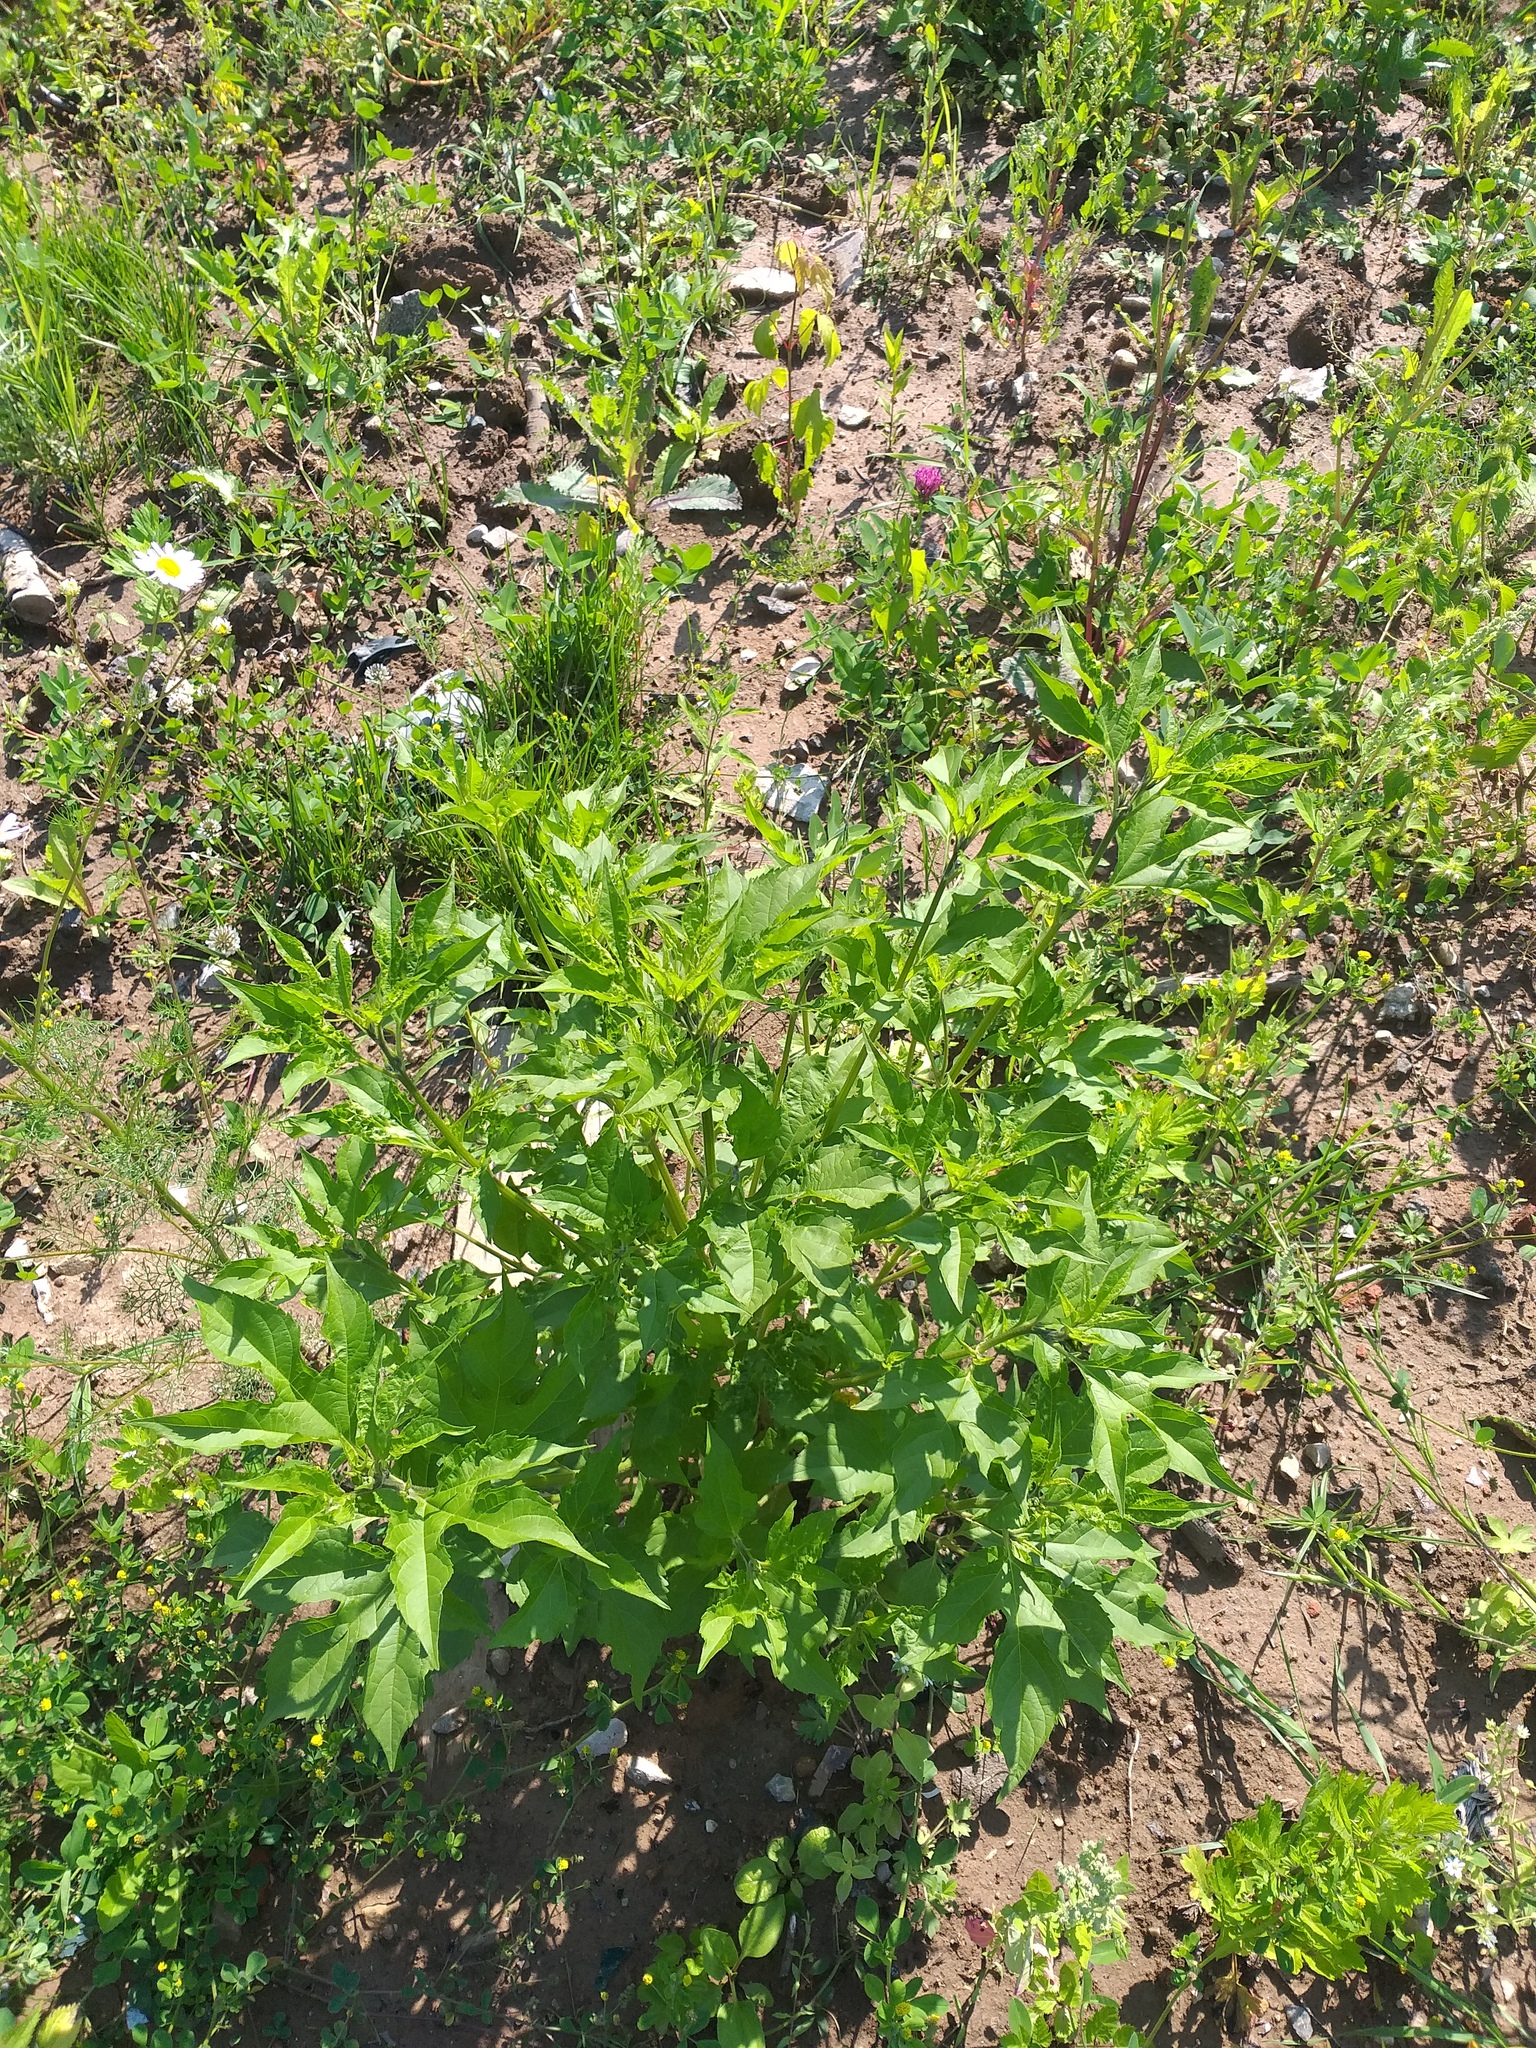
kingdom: Plantae
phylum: Tracheophyta
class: Magnoliopsida
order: Asterales
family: Asteraceae
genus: Ambrosia
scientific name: Ambrosia trifida
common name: Giant ragweed
